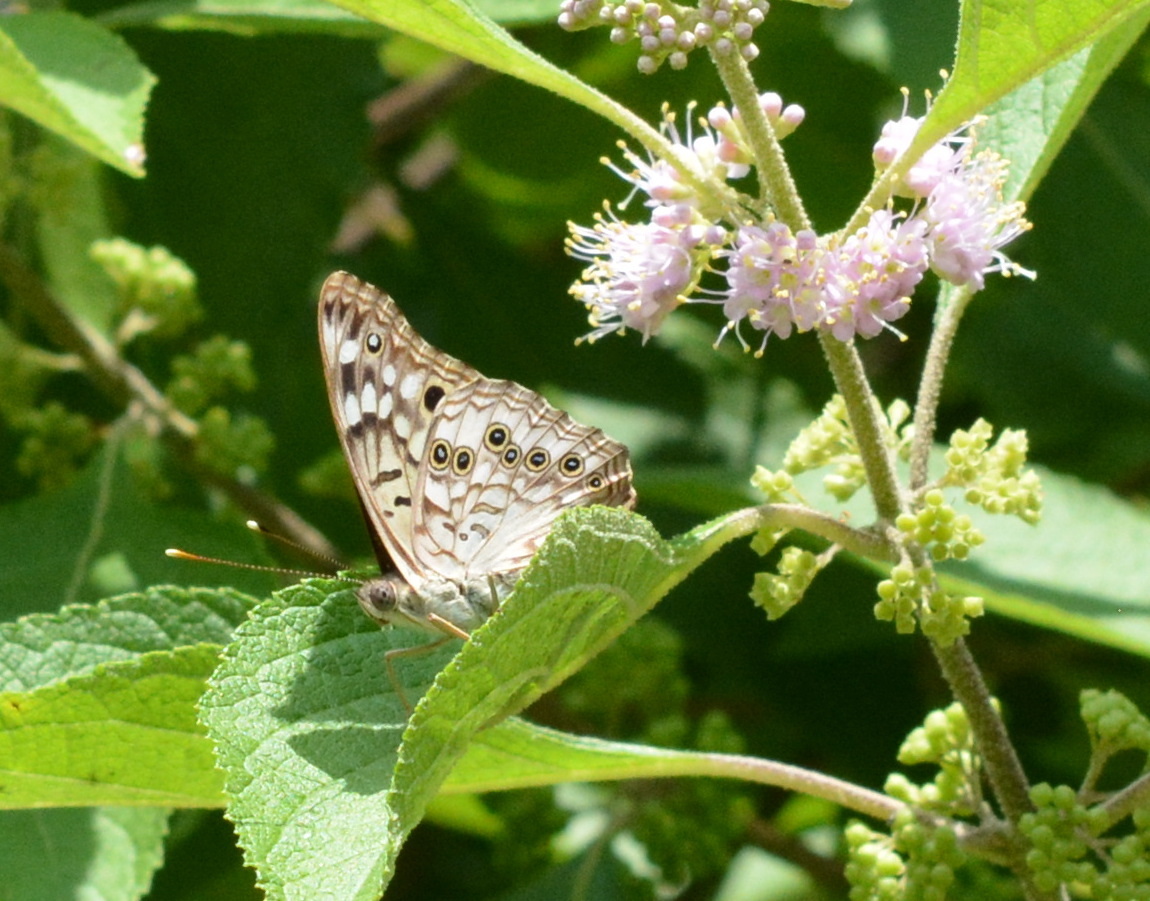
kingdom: Animalia
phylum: Arthropoda
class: Insecta
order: Lepidoptera
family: Nymphalidae
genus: Asterocampa
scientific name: Asterocampa celtis
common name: Hackberry emperor
